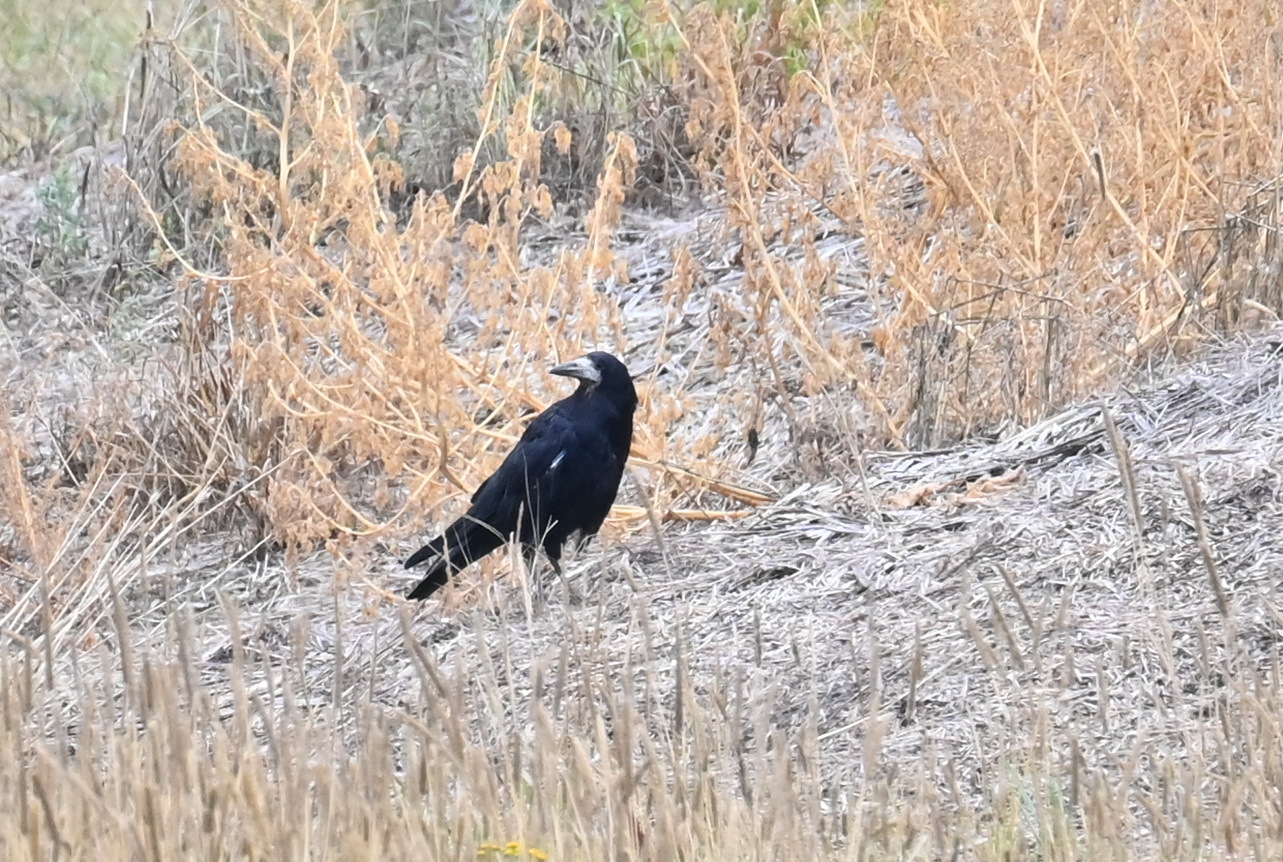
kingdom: Animalia
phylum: Chordata
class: Aves
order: Passeriformes
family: Corvidae
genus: Corvus
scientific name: Corvus frugilegus
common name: Rook
